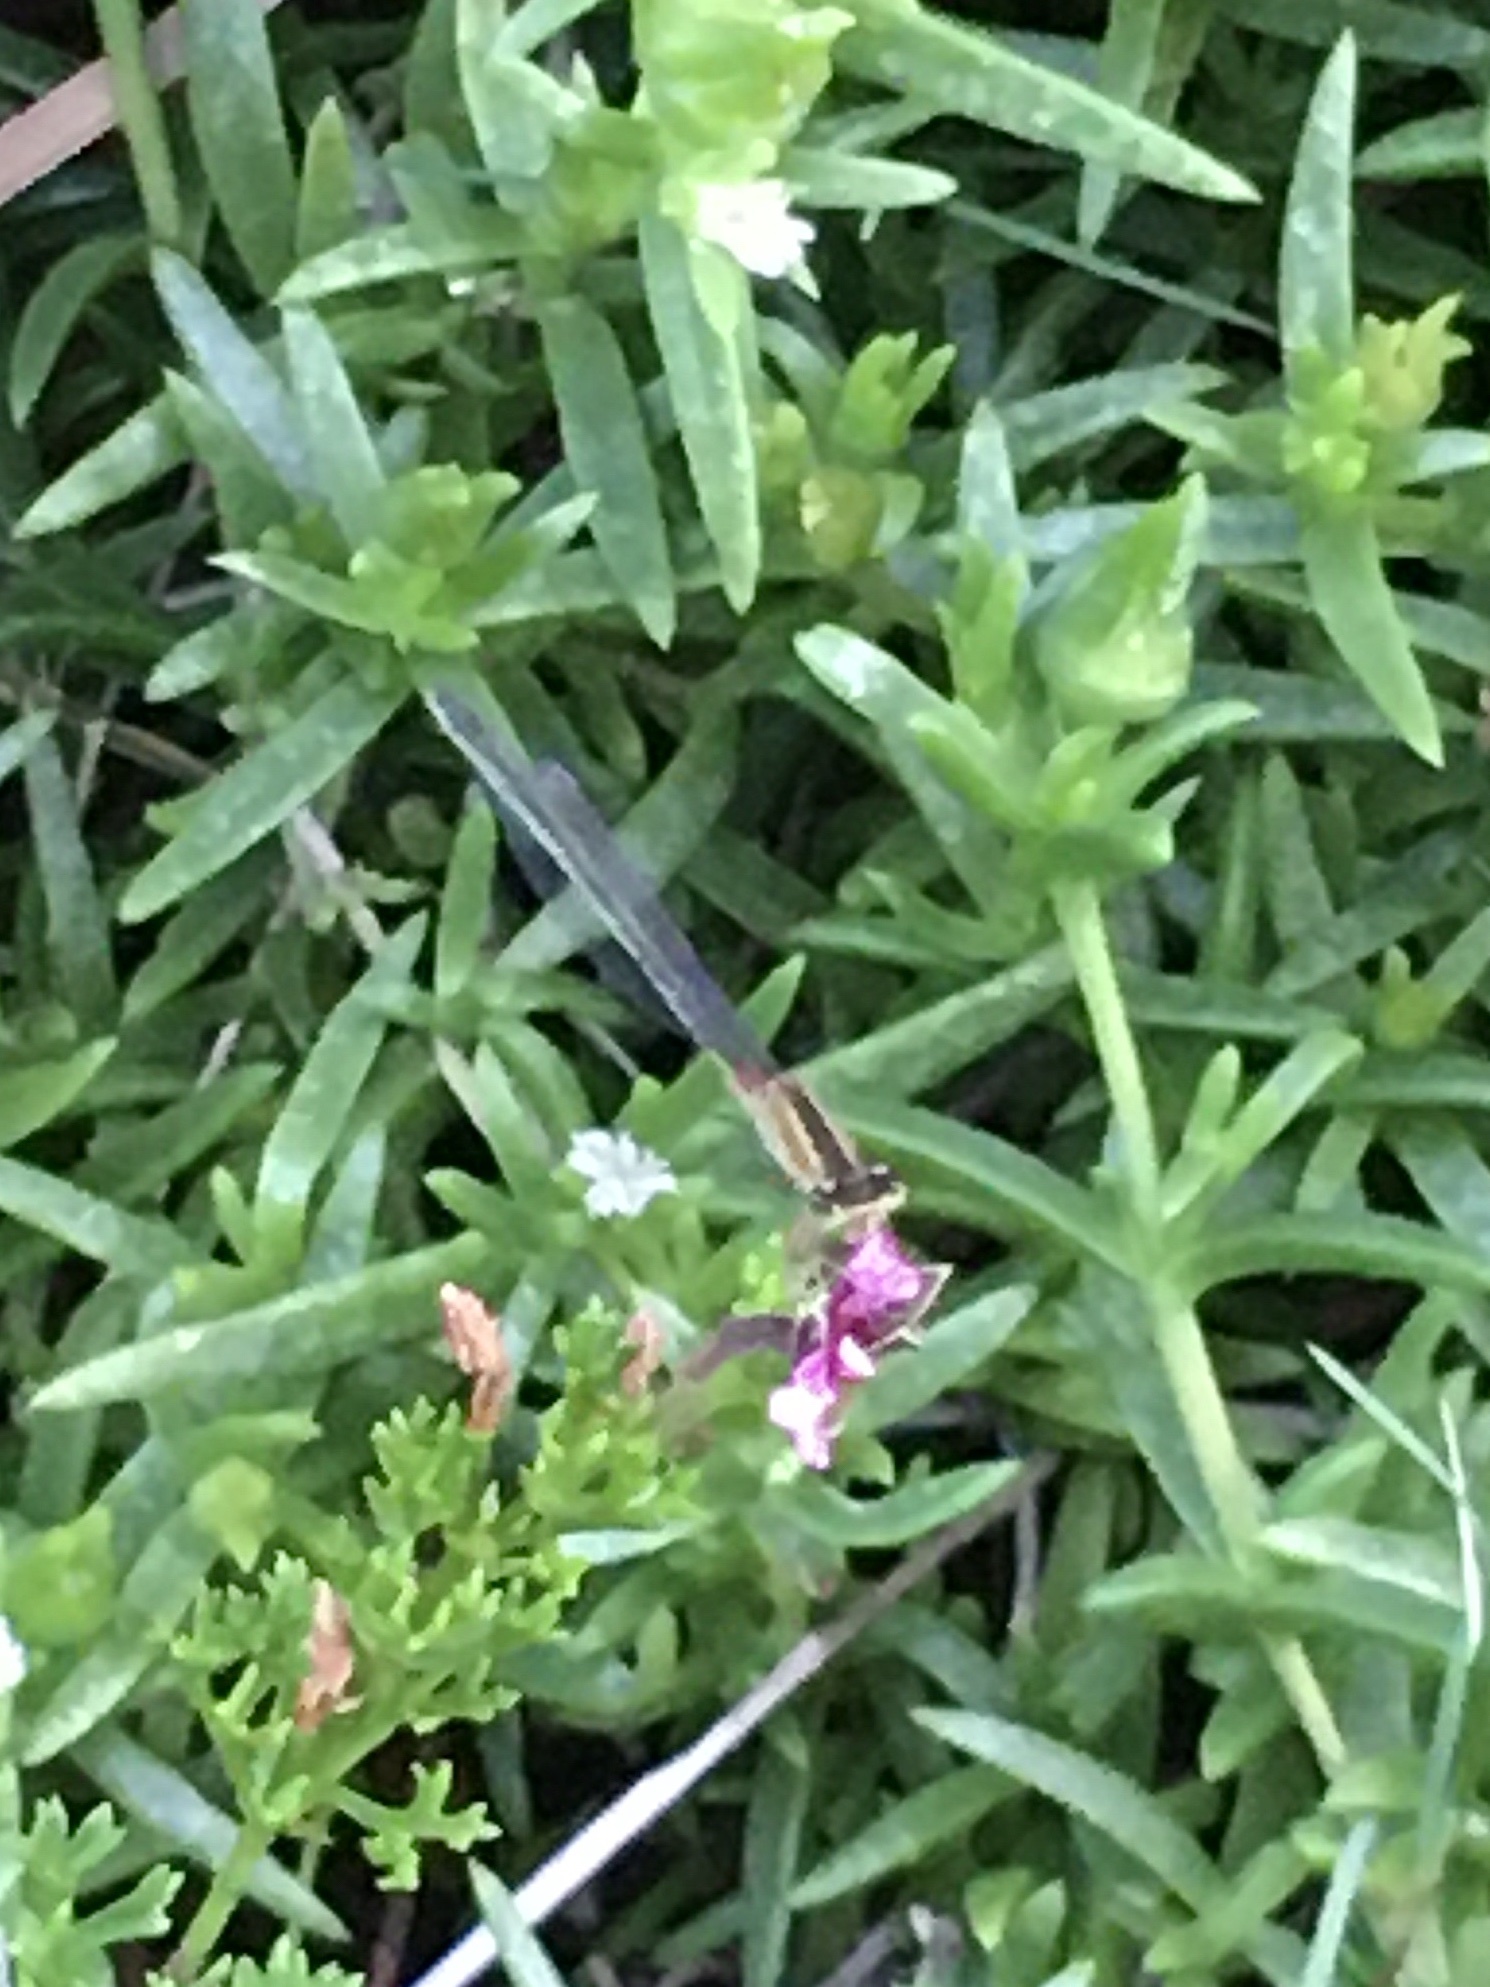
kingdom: Animalia
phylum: Arthropoda
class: Insecta
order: Odonata
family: Coenagrionidae
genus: Ischnura
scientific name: Ischnura senegalensis
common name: Tropical bluetail
